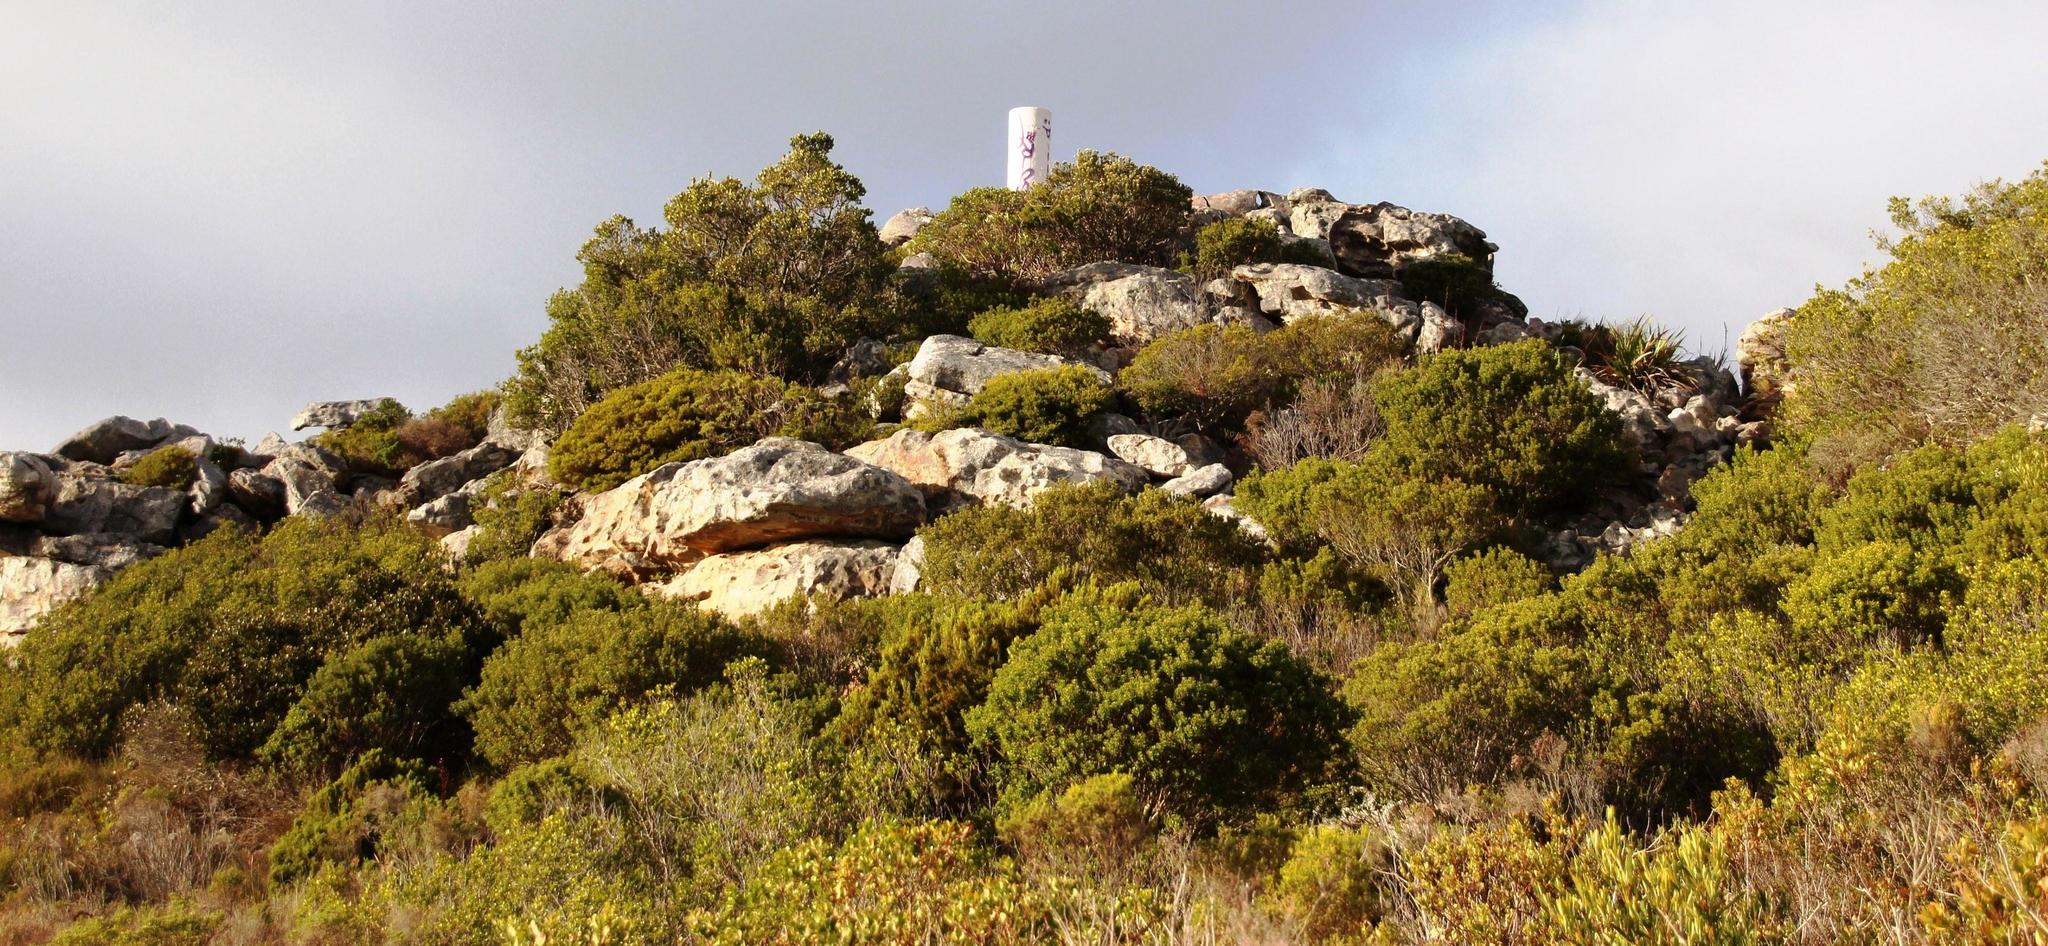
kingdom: Plantae
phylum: Tracheophyta
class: Magnoliopsida
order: Sapindales
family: Rutaceae
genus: Coleonema
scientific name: Coleonema album
